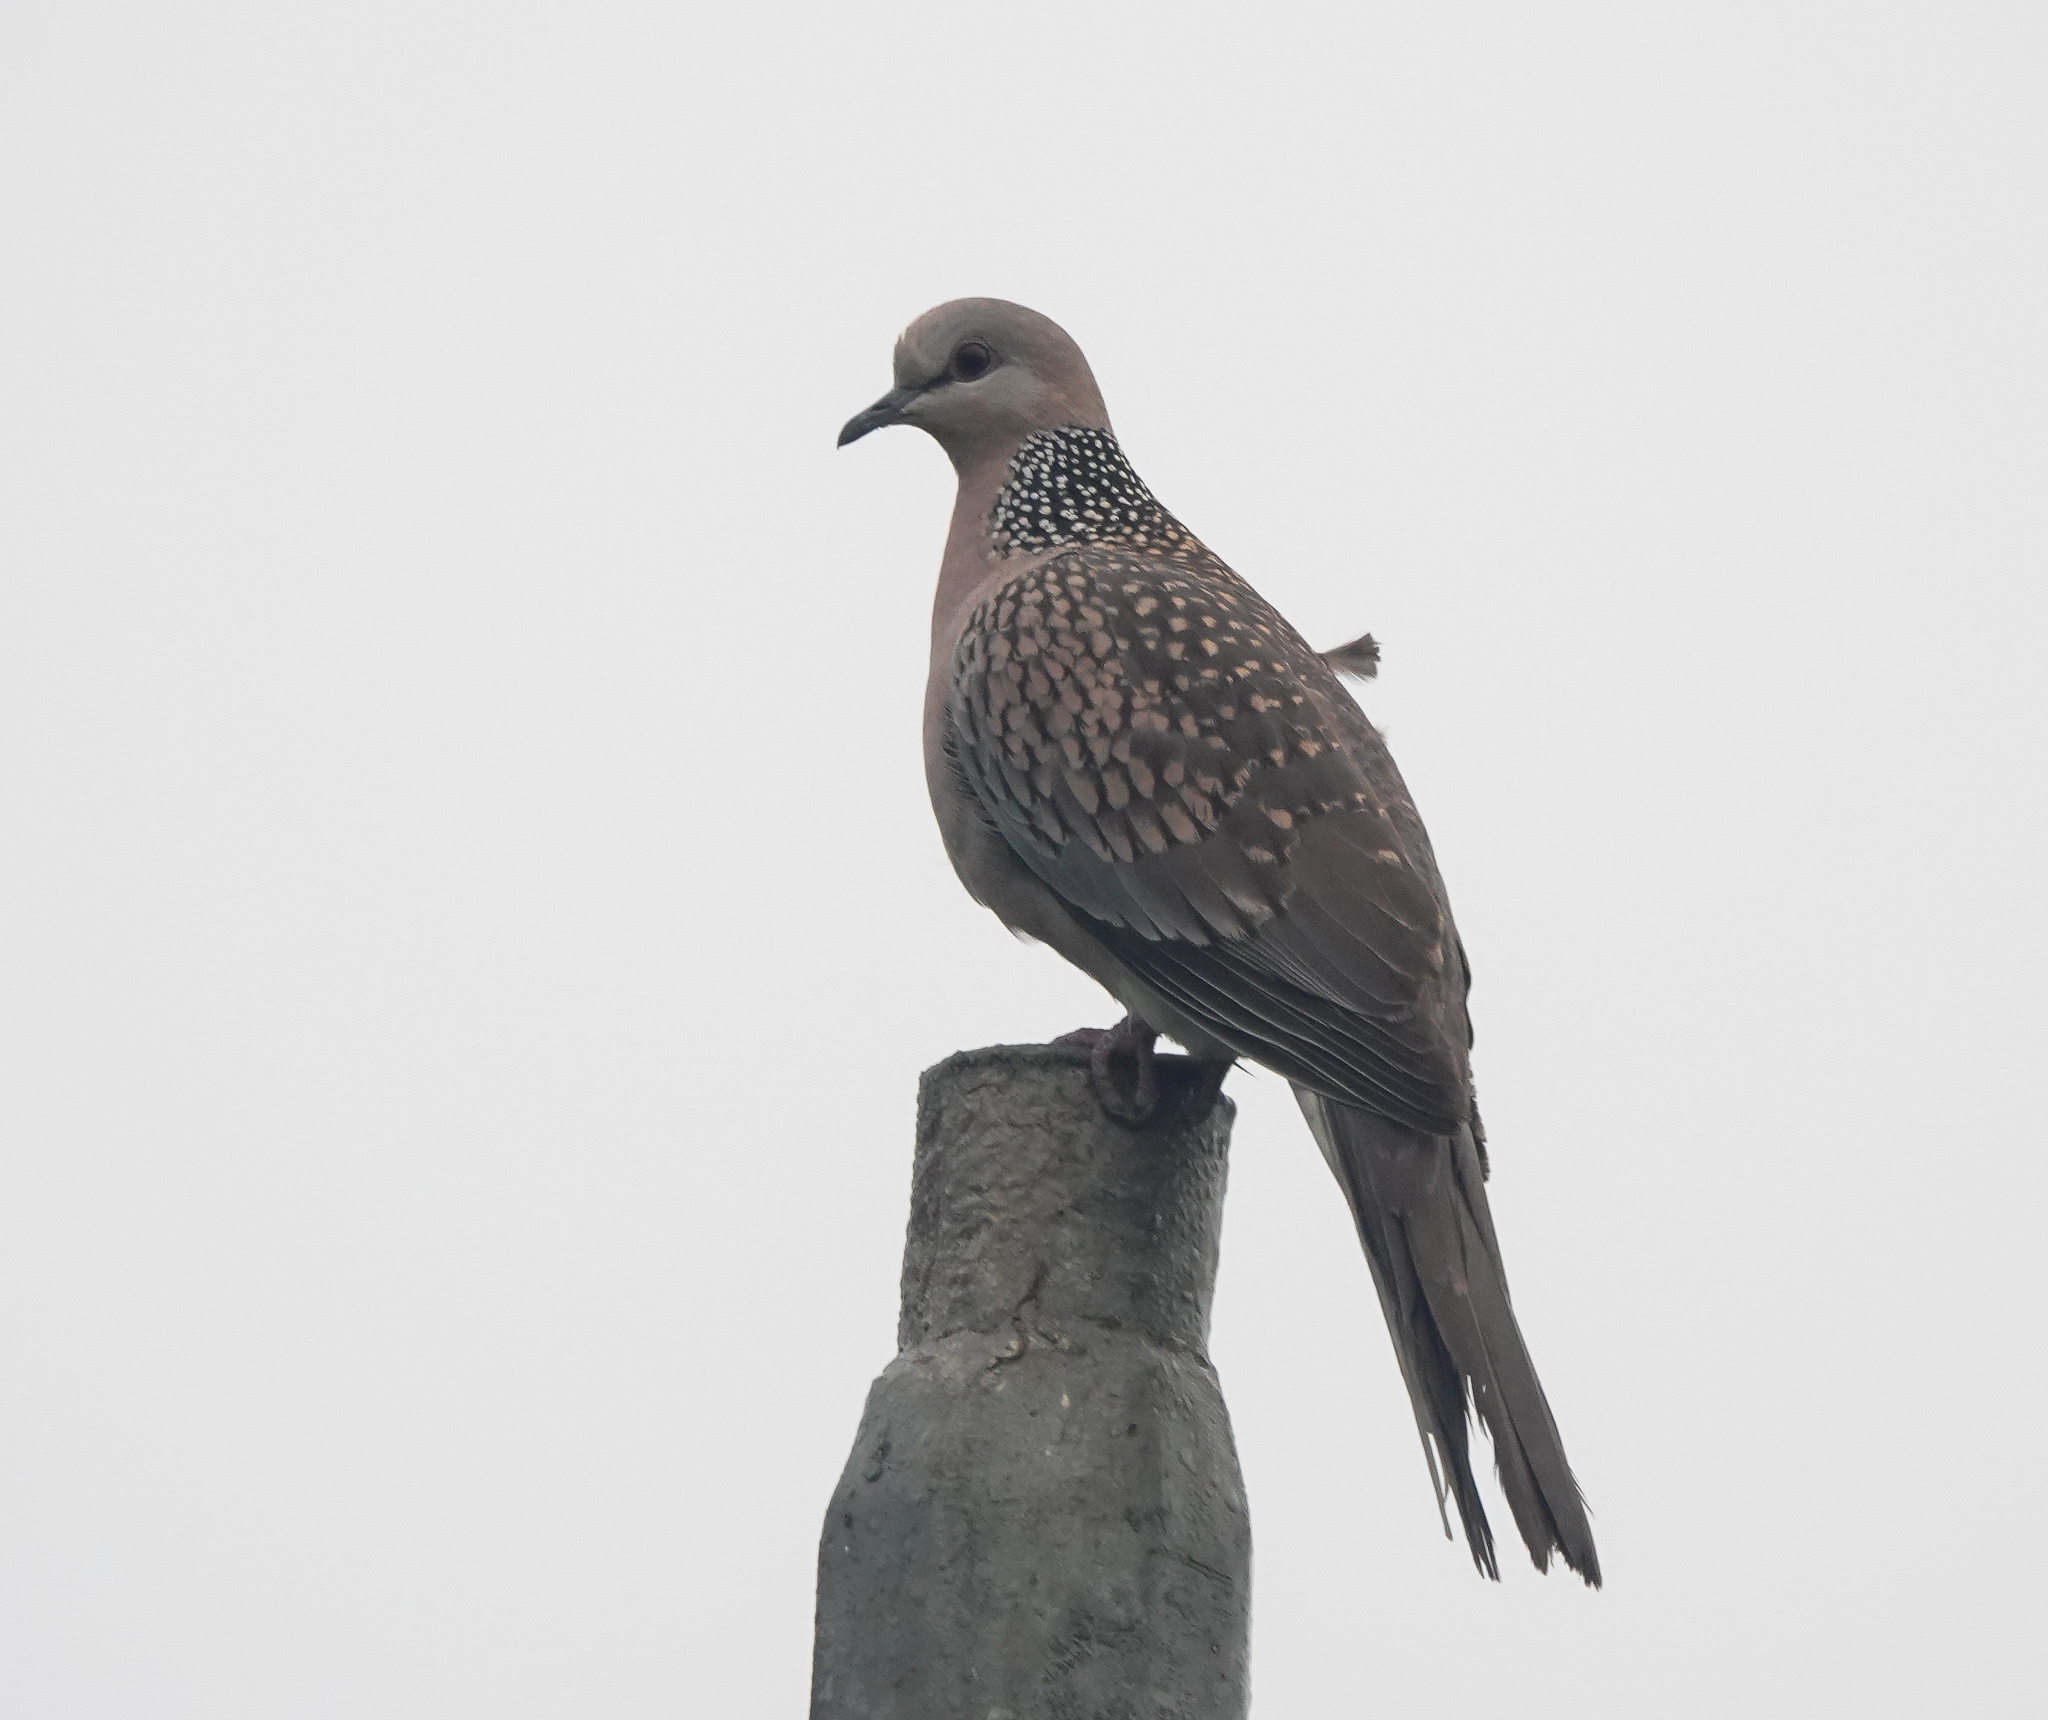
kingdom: Animalia
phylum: Chordata
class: Aves
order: Columbiformes
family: Columbidae
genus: Spilopelia
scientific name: Spilopelia chinensis
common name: Spotted dove
